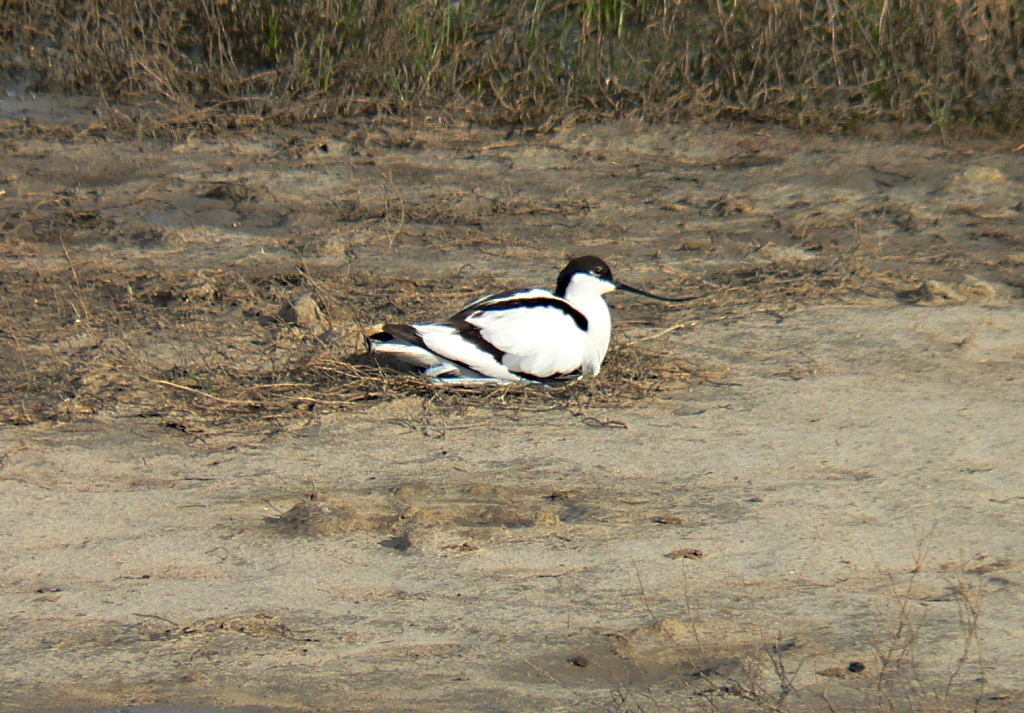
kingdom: Animalia
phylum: Chordata
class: Aves
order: Charadriiformes
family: Recurvirostridae
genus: Recurvirostra
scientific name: Recurvirostra avosetta
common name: Pied avocet
